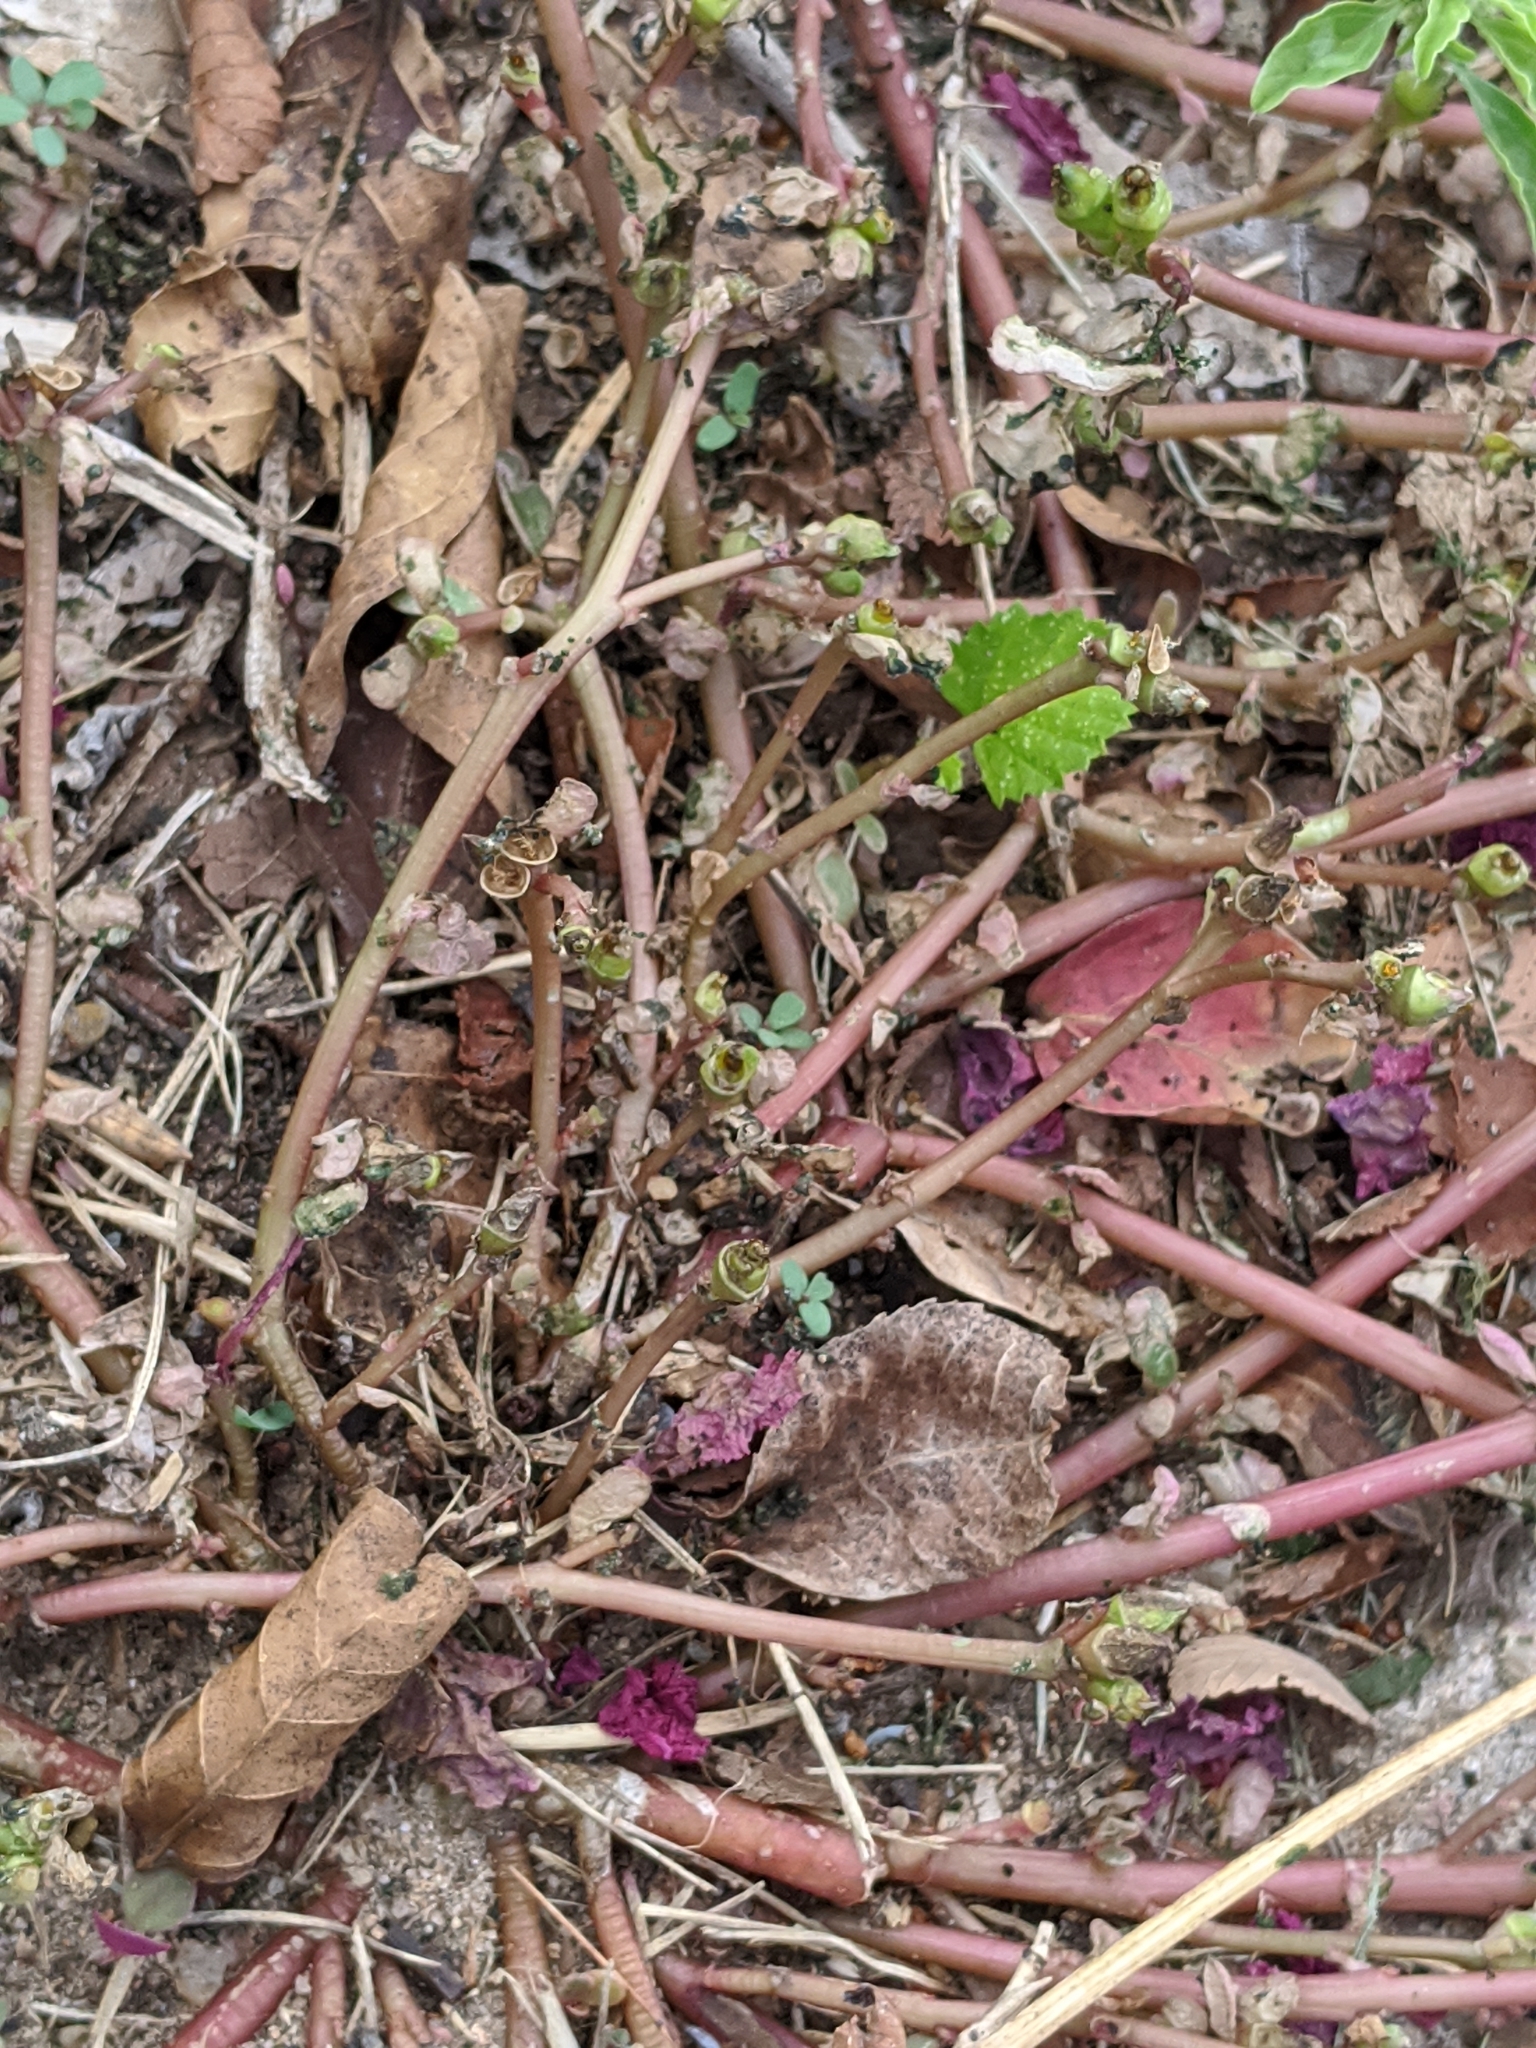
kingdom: Animalia
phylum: Arthropoda
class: Insecta
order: Hymenoptera
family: Argidae
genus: Schizocerella
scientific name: Schizocerella
